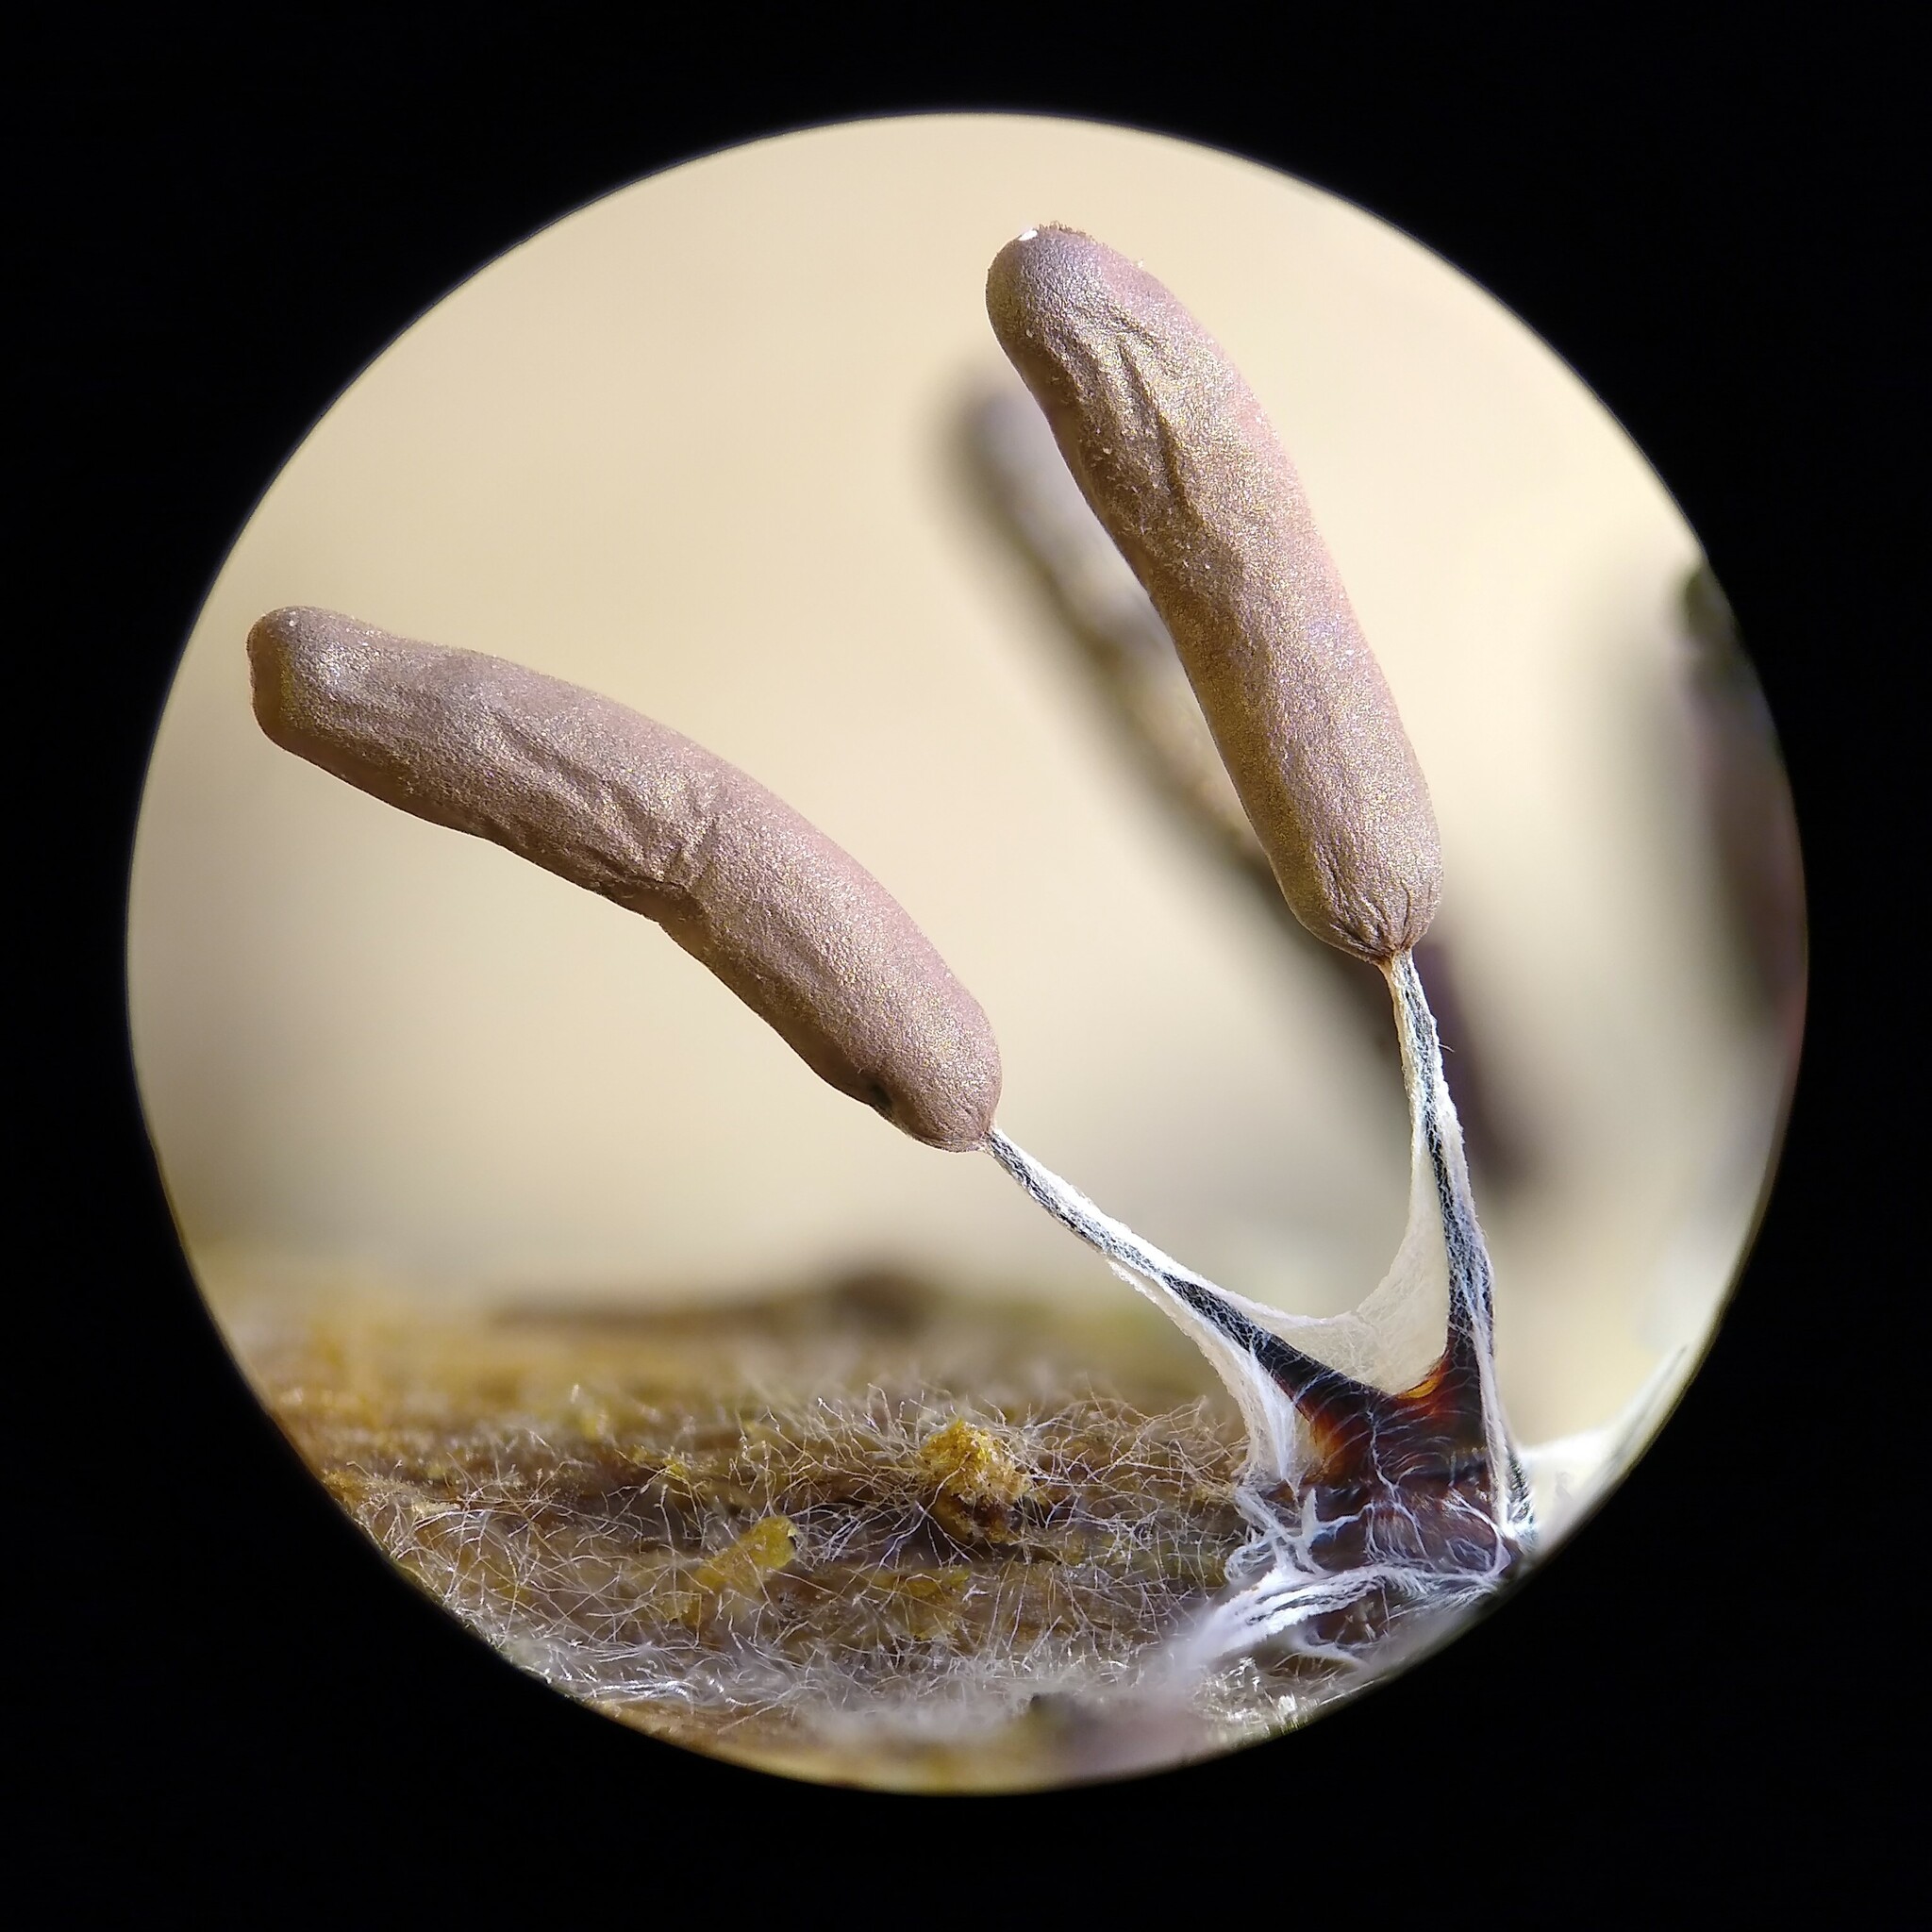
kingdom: Protozoa
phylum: Mycetozoa
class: Myxomycetes
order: Stemonitidales
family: Stemonitidaceae
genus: Stemonitopsis
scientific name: Stemonitopsis typhina
